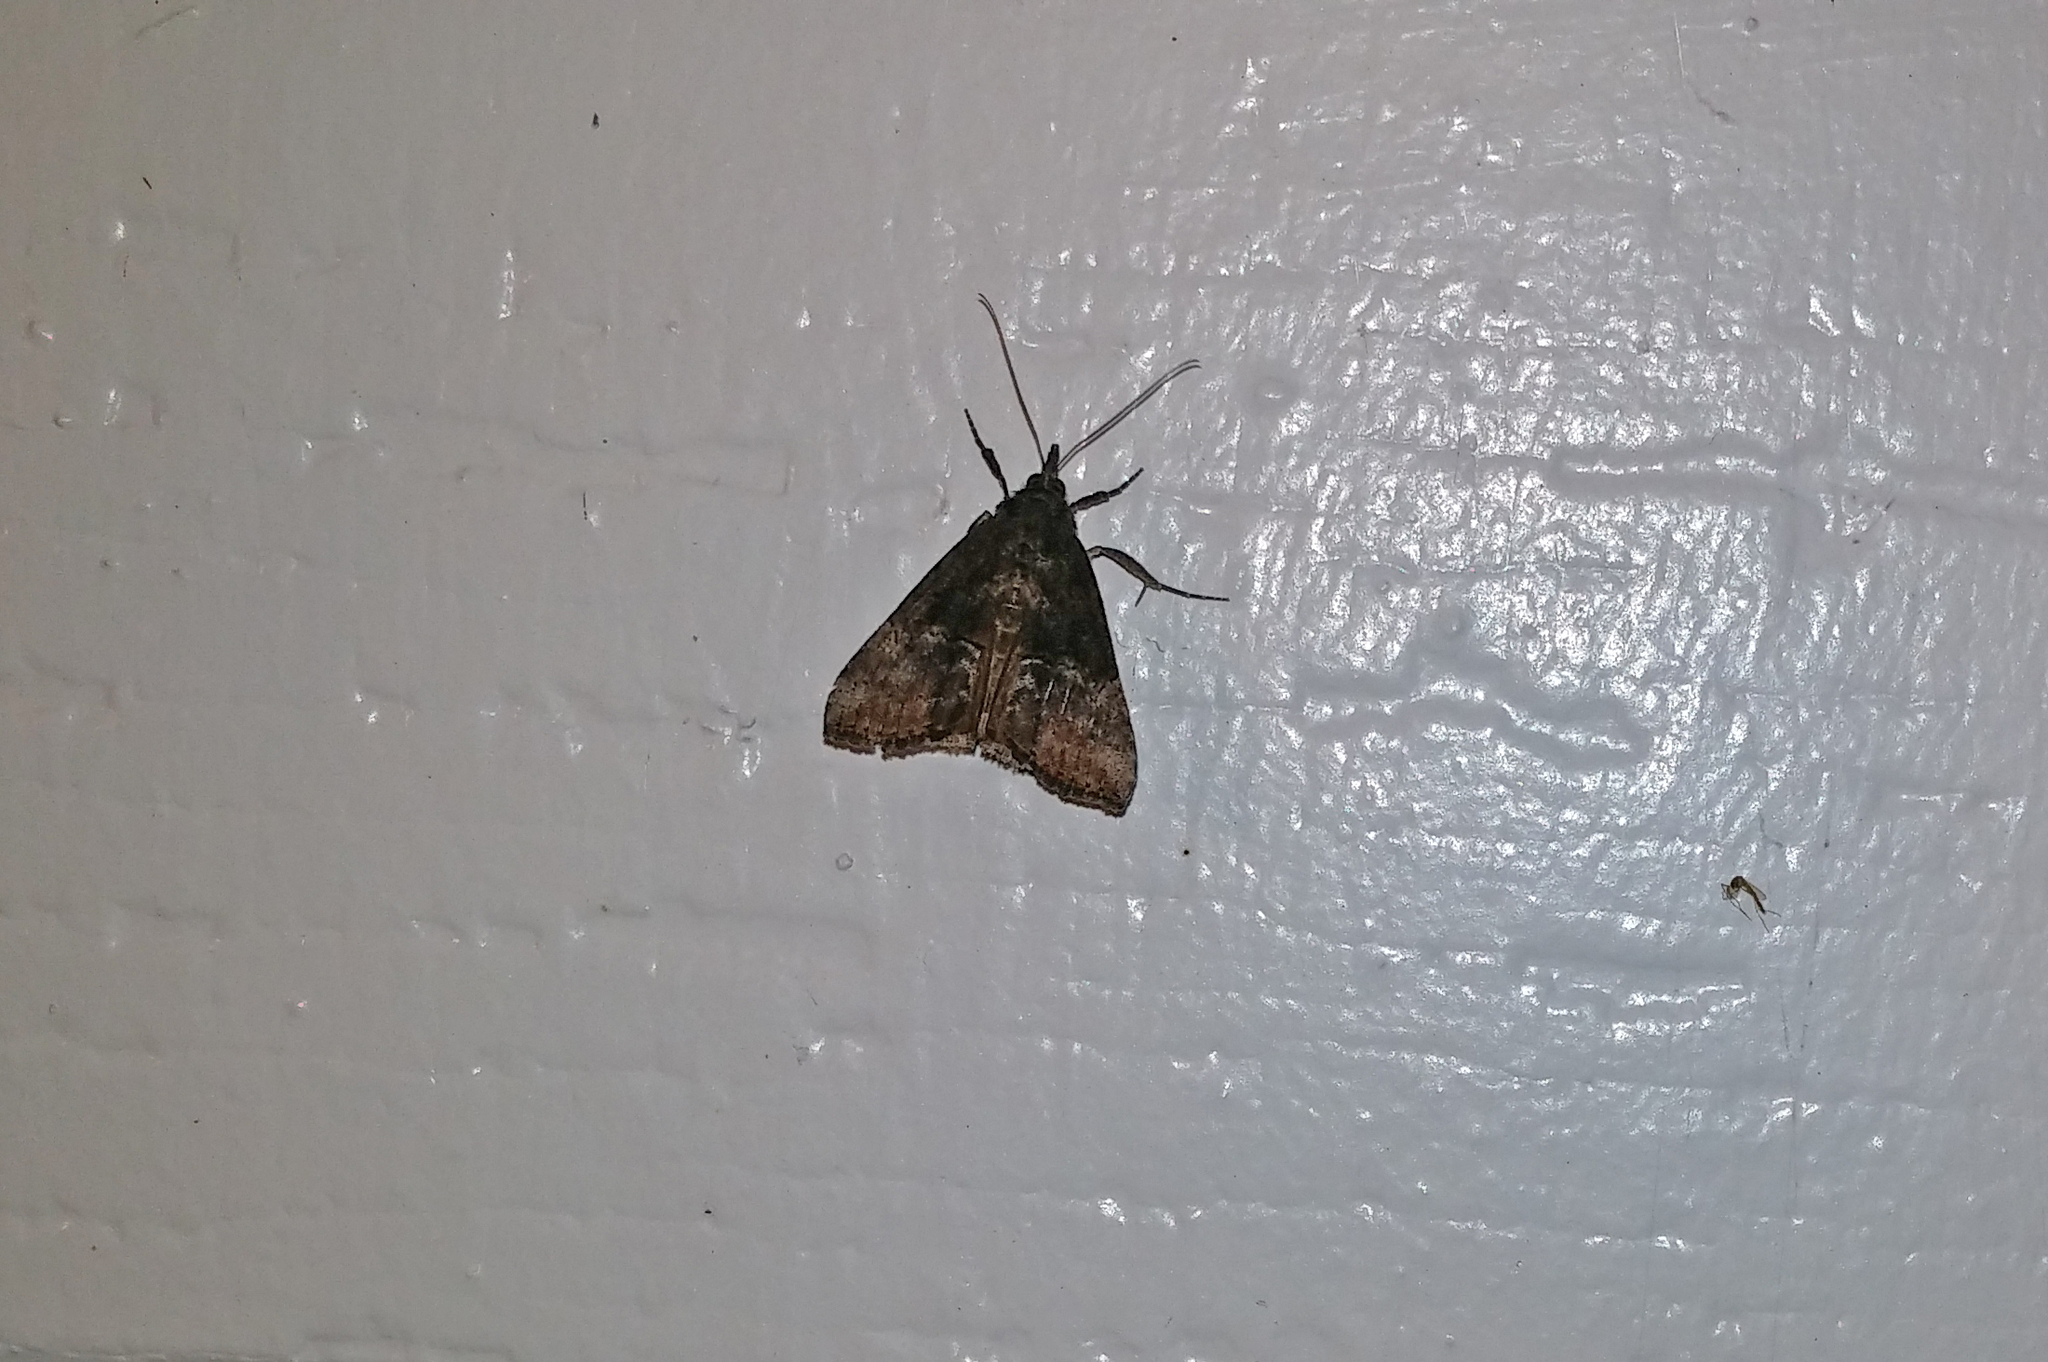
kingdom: Animalia
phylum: Arthropoda
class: Insecta
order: Lepidoptera
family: Erebidae
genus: Hypena
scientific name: Hypena scabra
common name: Green cloverworm
